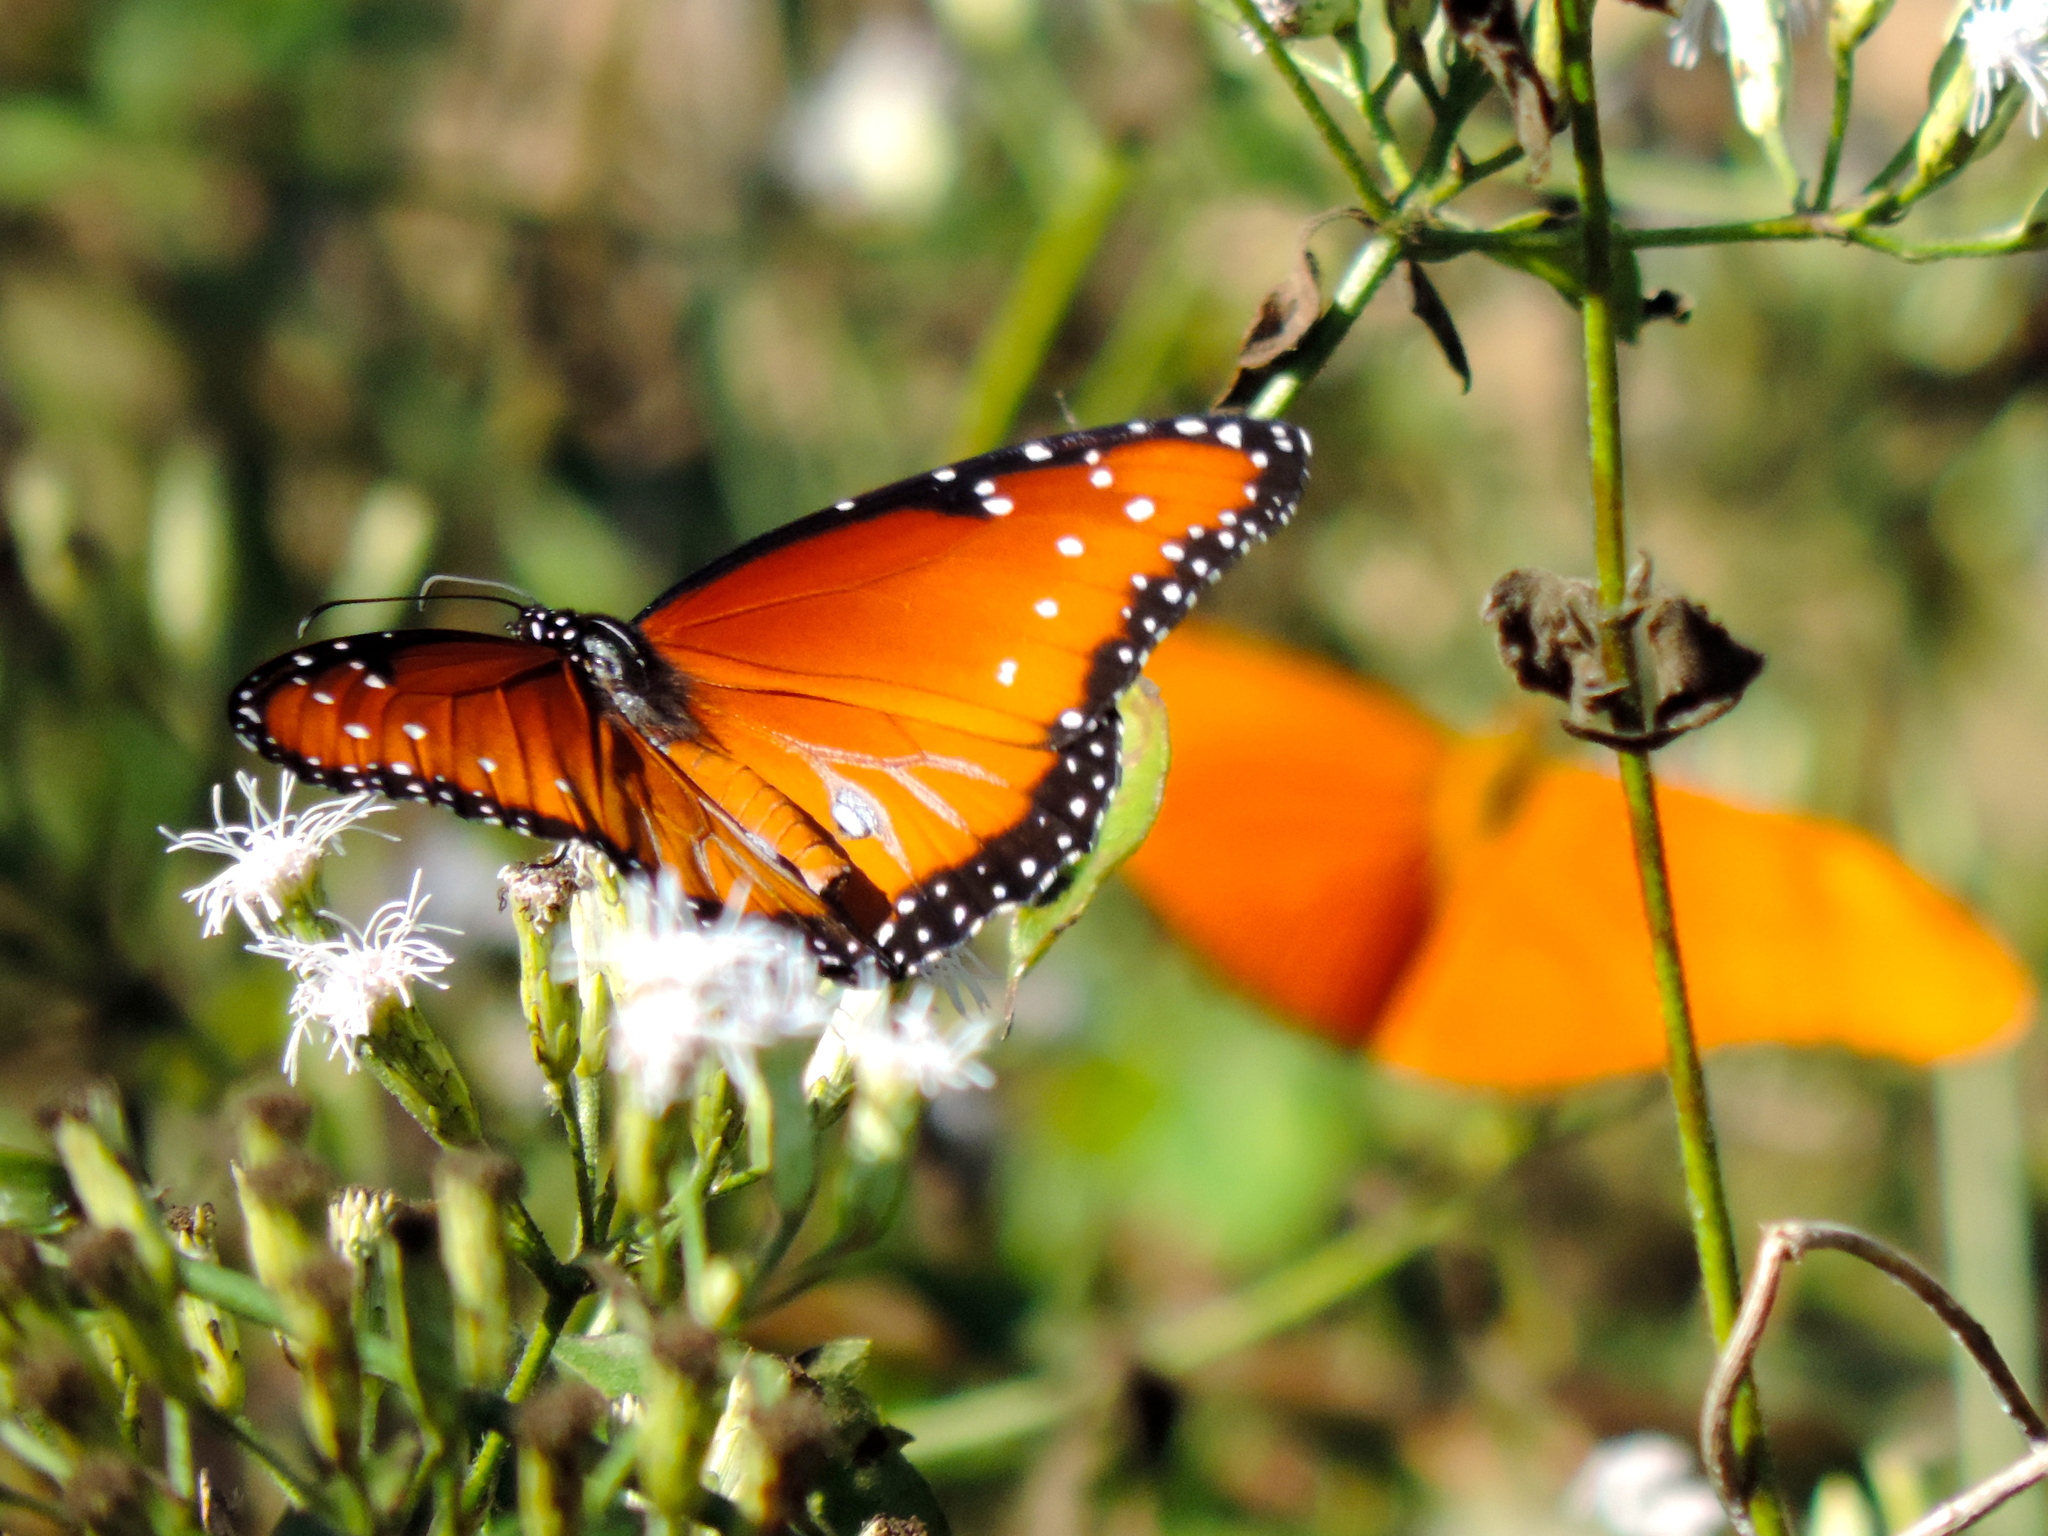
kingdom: Animalia
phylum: Arthropoda
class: Insecta
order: Lepidoptera
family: Nymphalidae
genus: Danaus
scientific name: Danaus gilippus
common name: Queen
